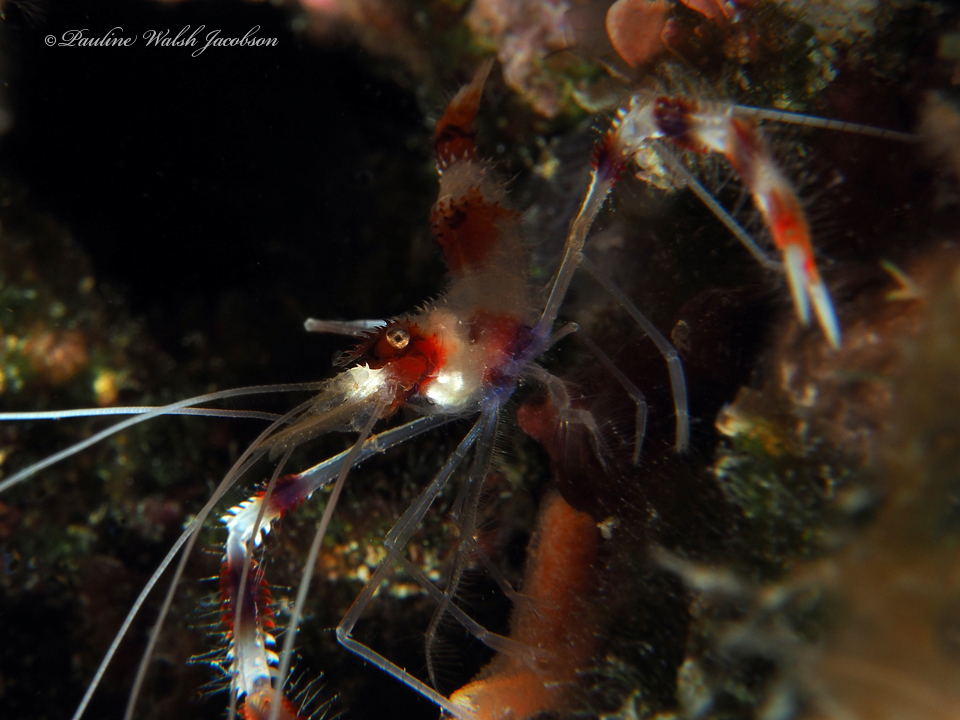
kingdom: Animalia
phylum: Arthropoda
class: Malacostraca
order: Decapoda
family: Stenopodidae
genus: Stenopus
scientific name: Stenopus hispidus
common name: Banded coral shrimp
